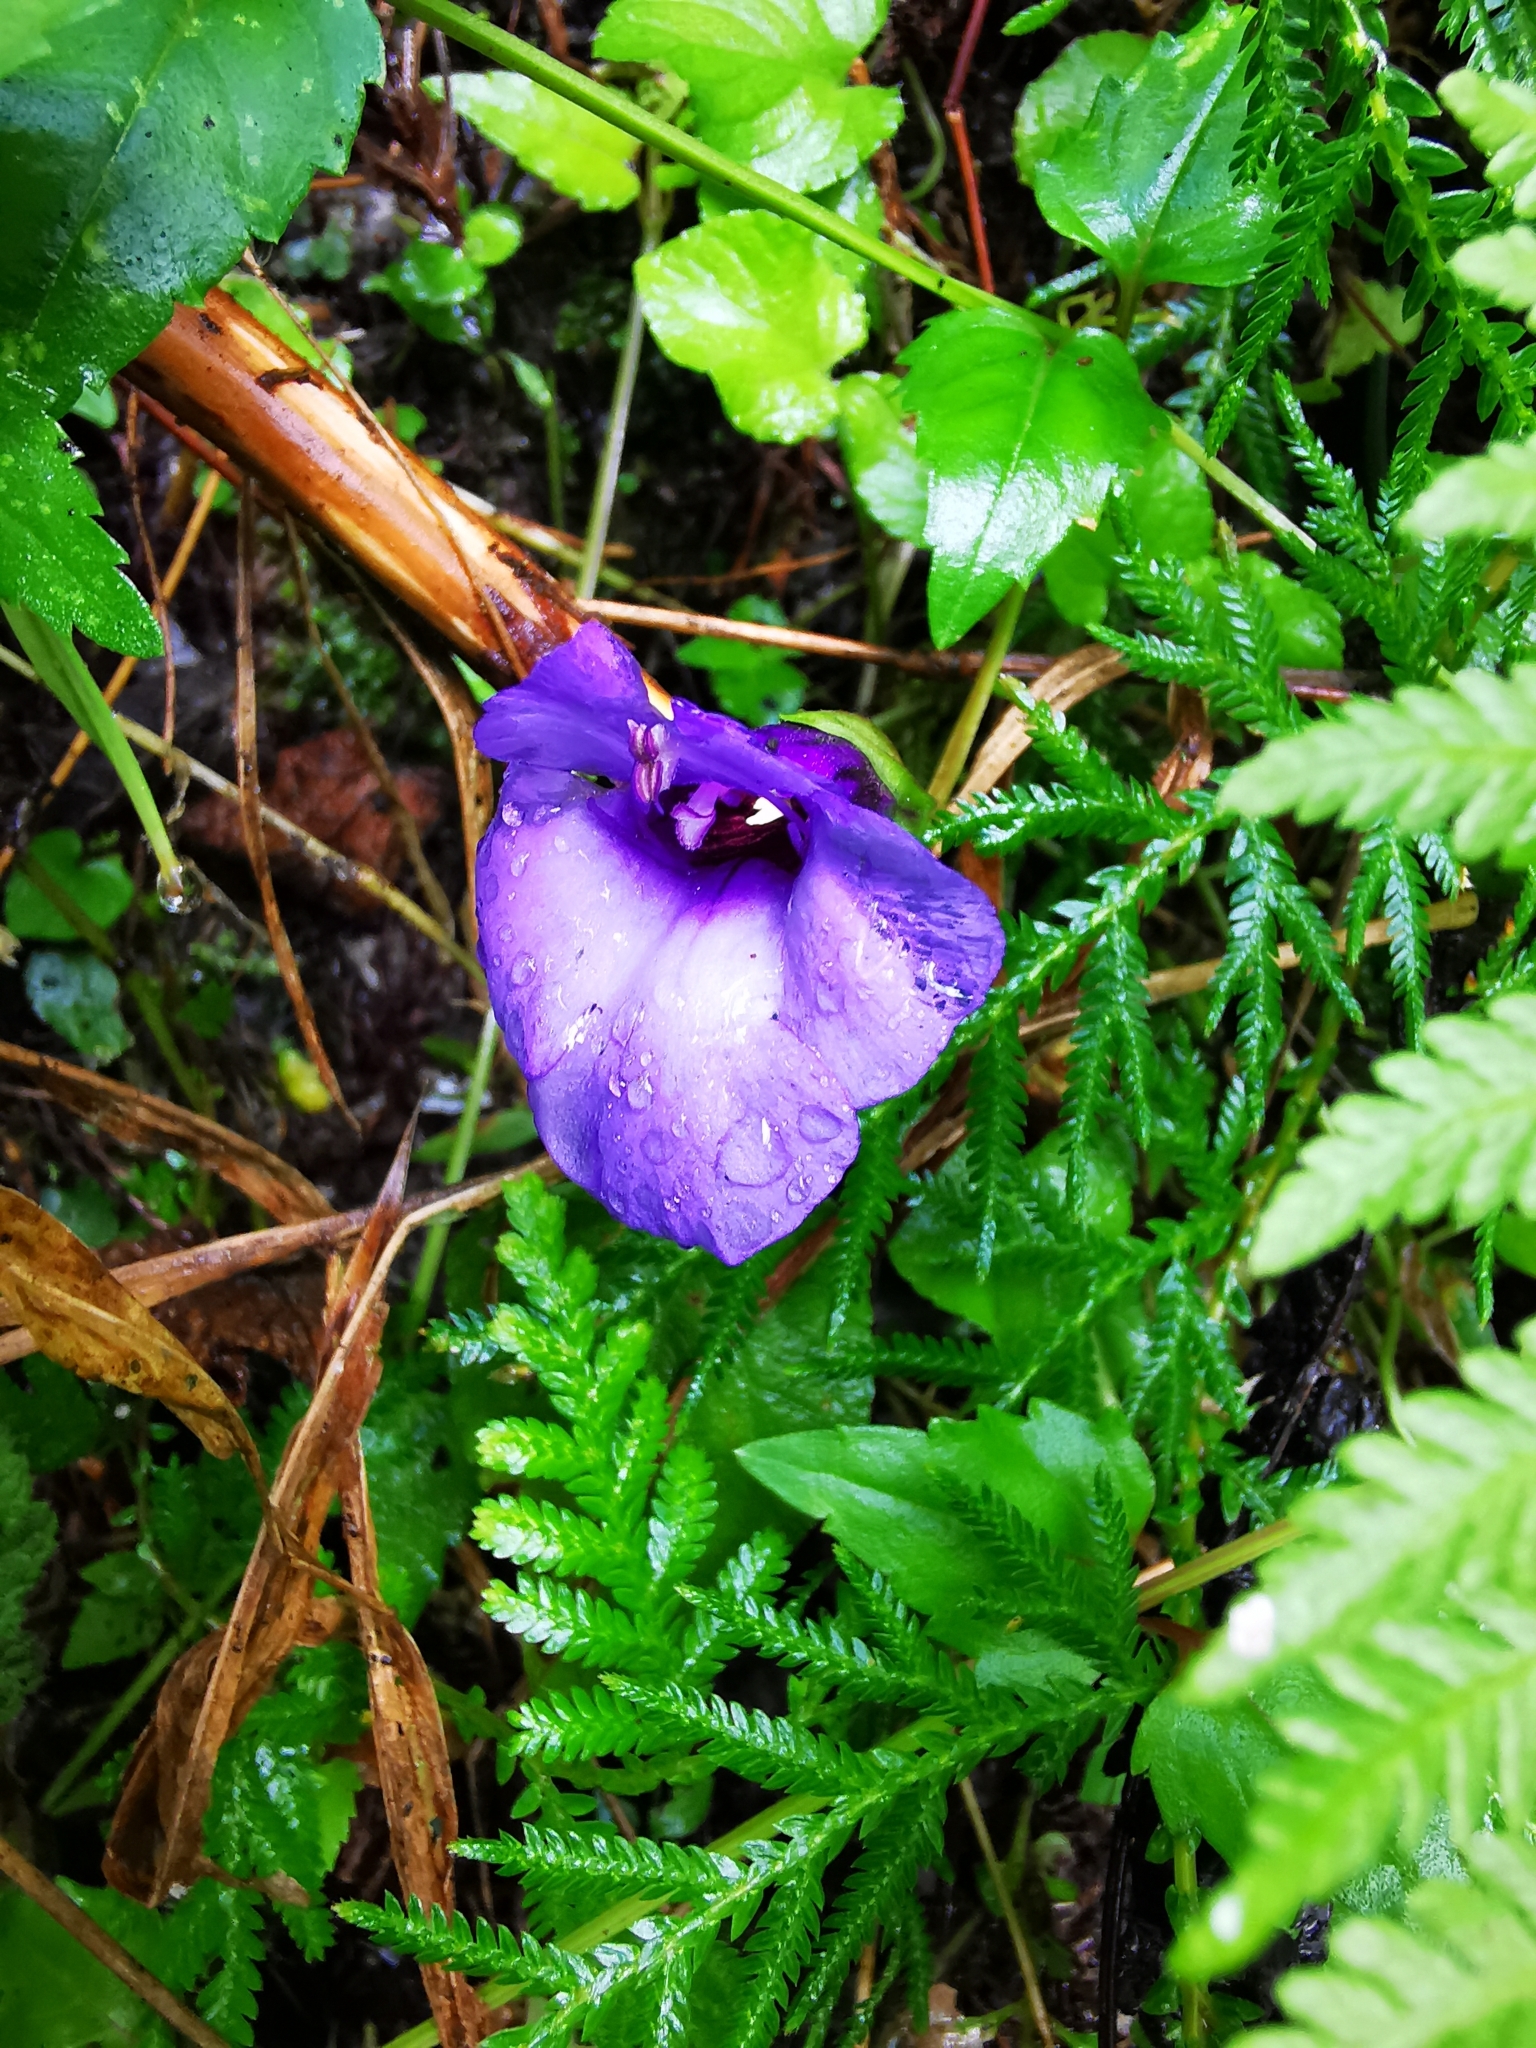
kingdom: Plantae
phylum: Tracheophyta
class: Magnoliopsida
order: Lamiales
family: Linderniaceae
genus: Torenia
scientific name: Torenia concolor
